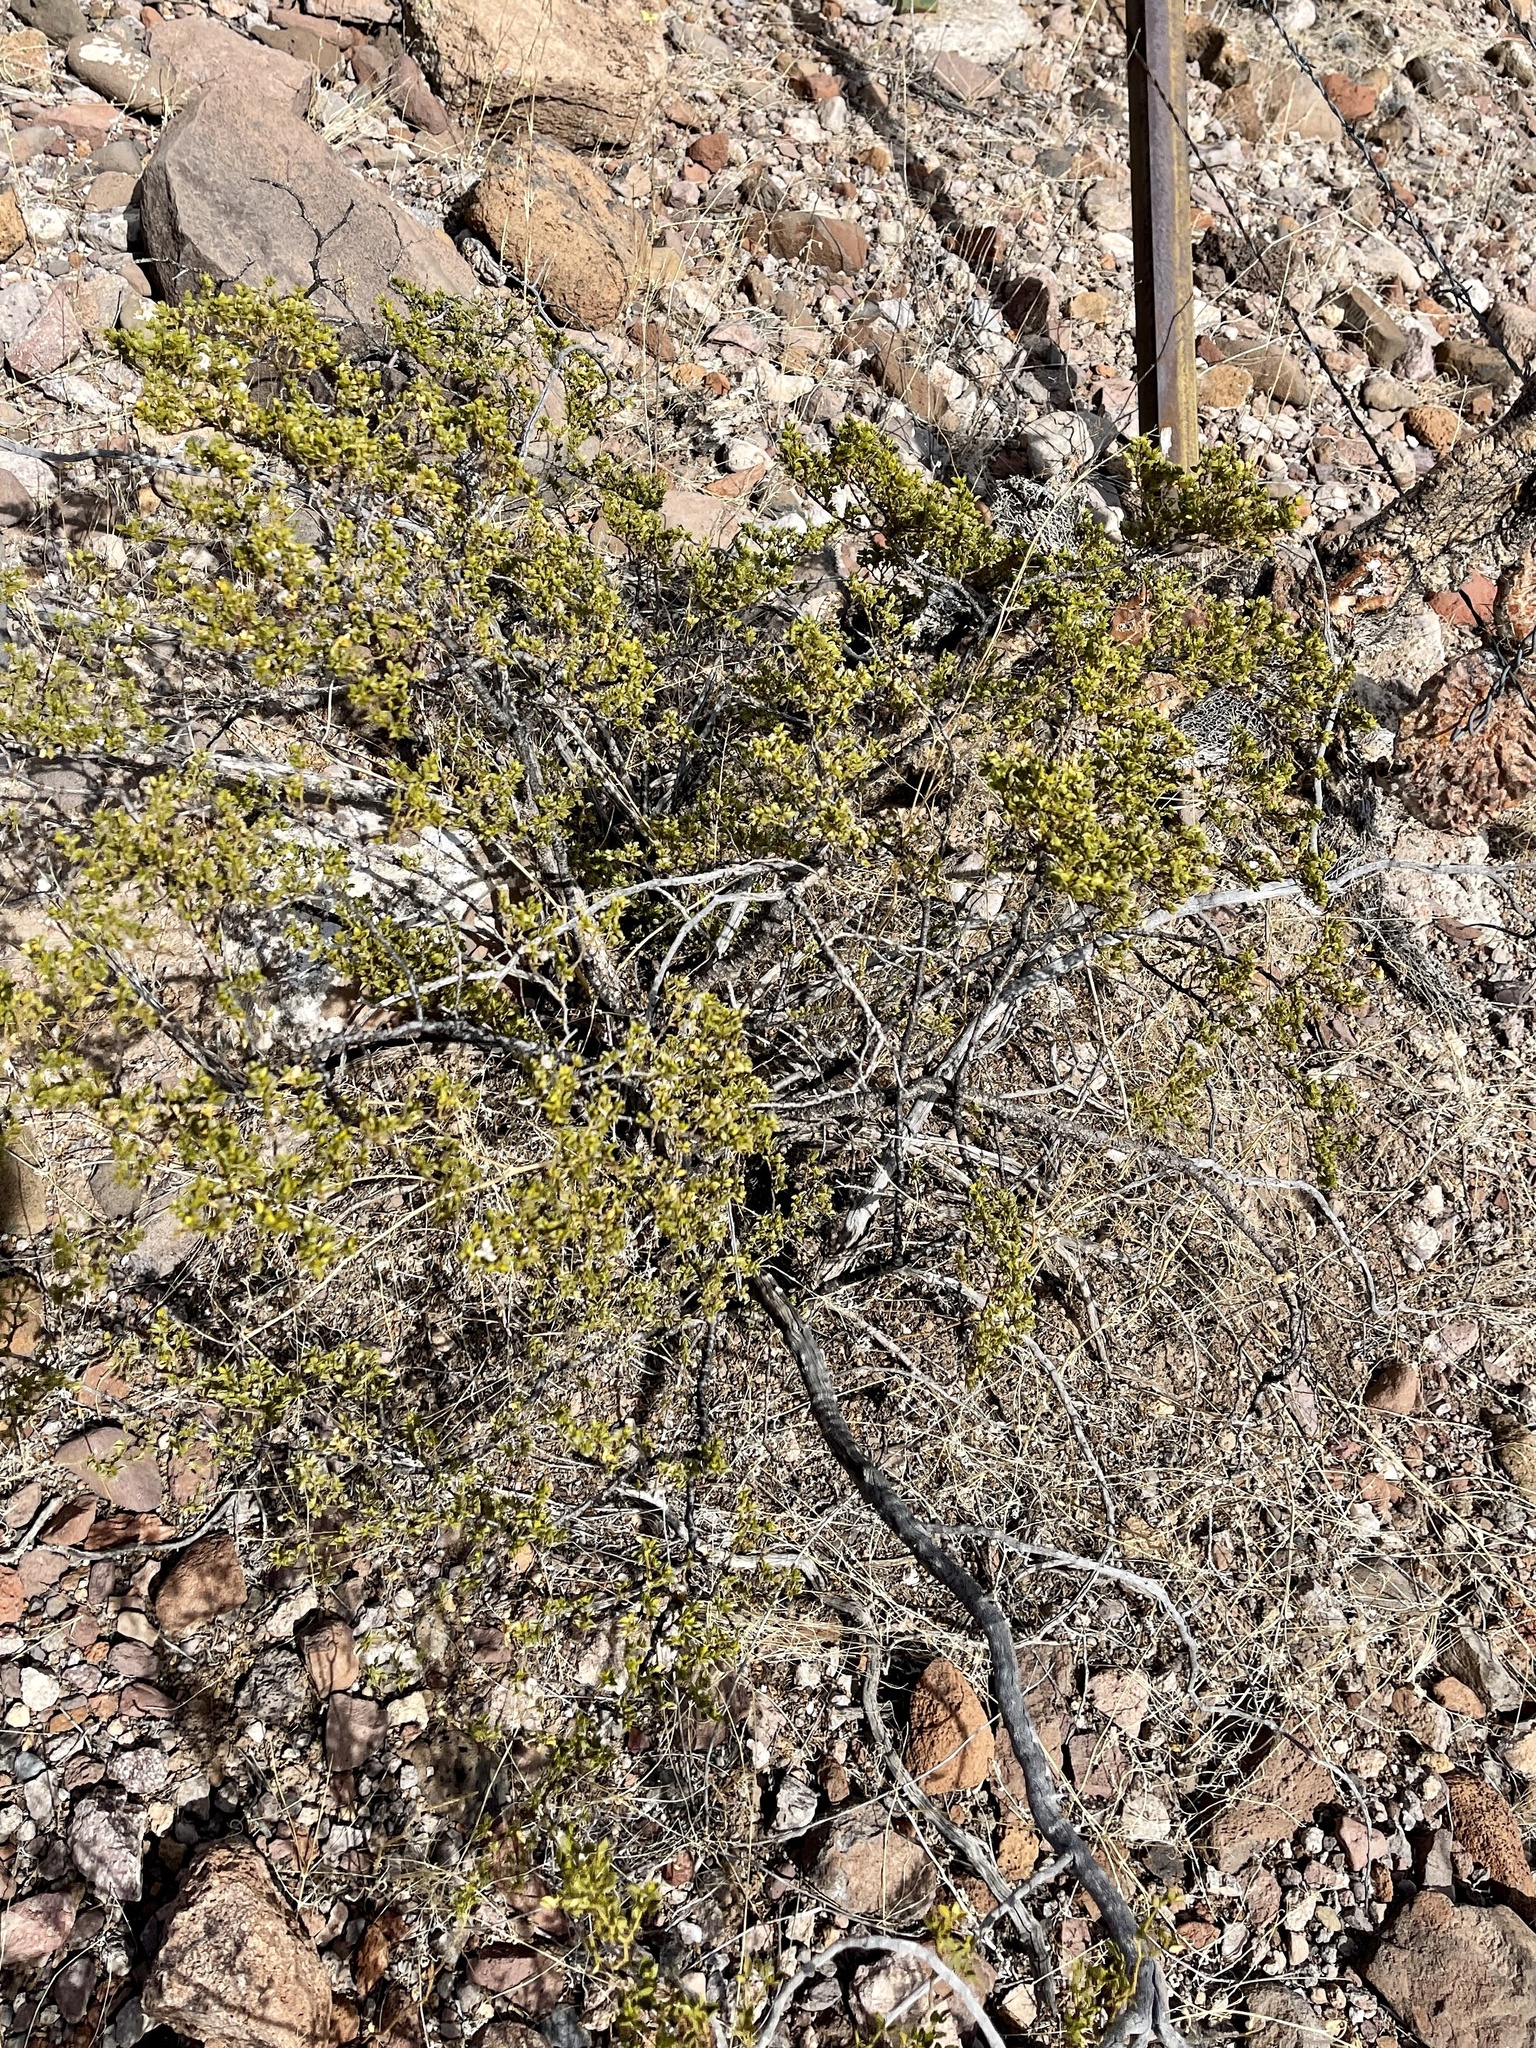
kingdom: Plantae
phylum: Tracheophyta
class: Magnoliopsida
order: Zygophyllales
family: Zygophyllaceae
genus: Larrea
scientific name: Larrea tridentata
